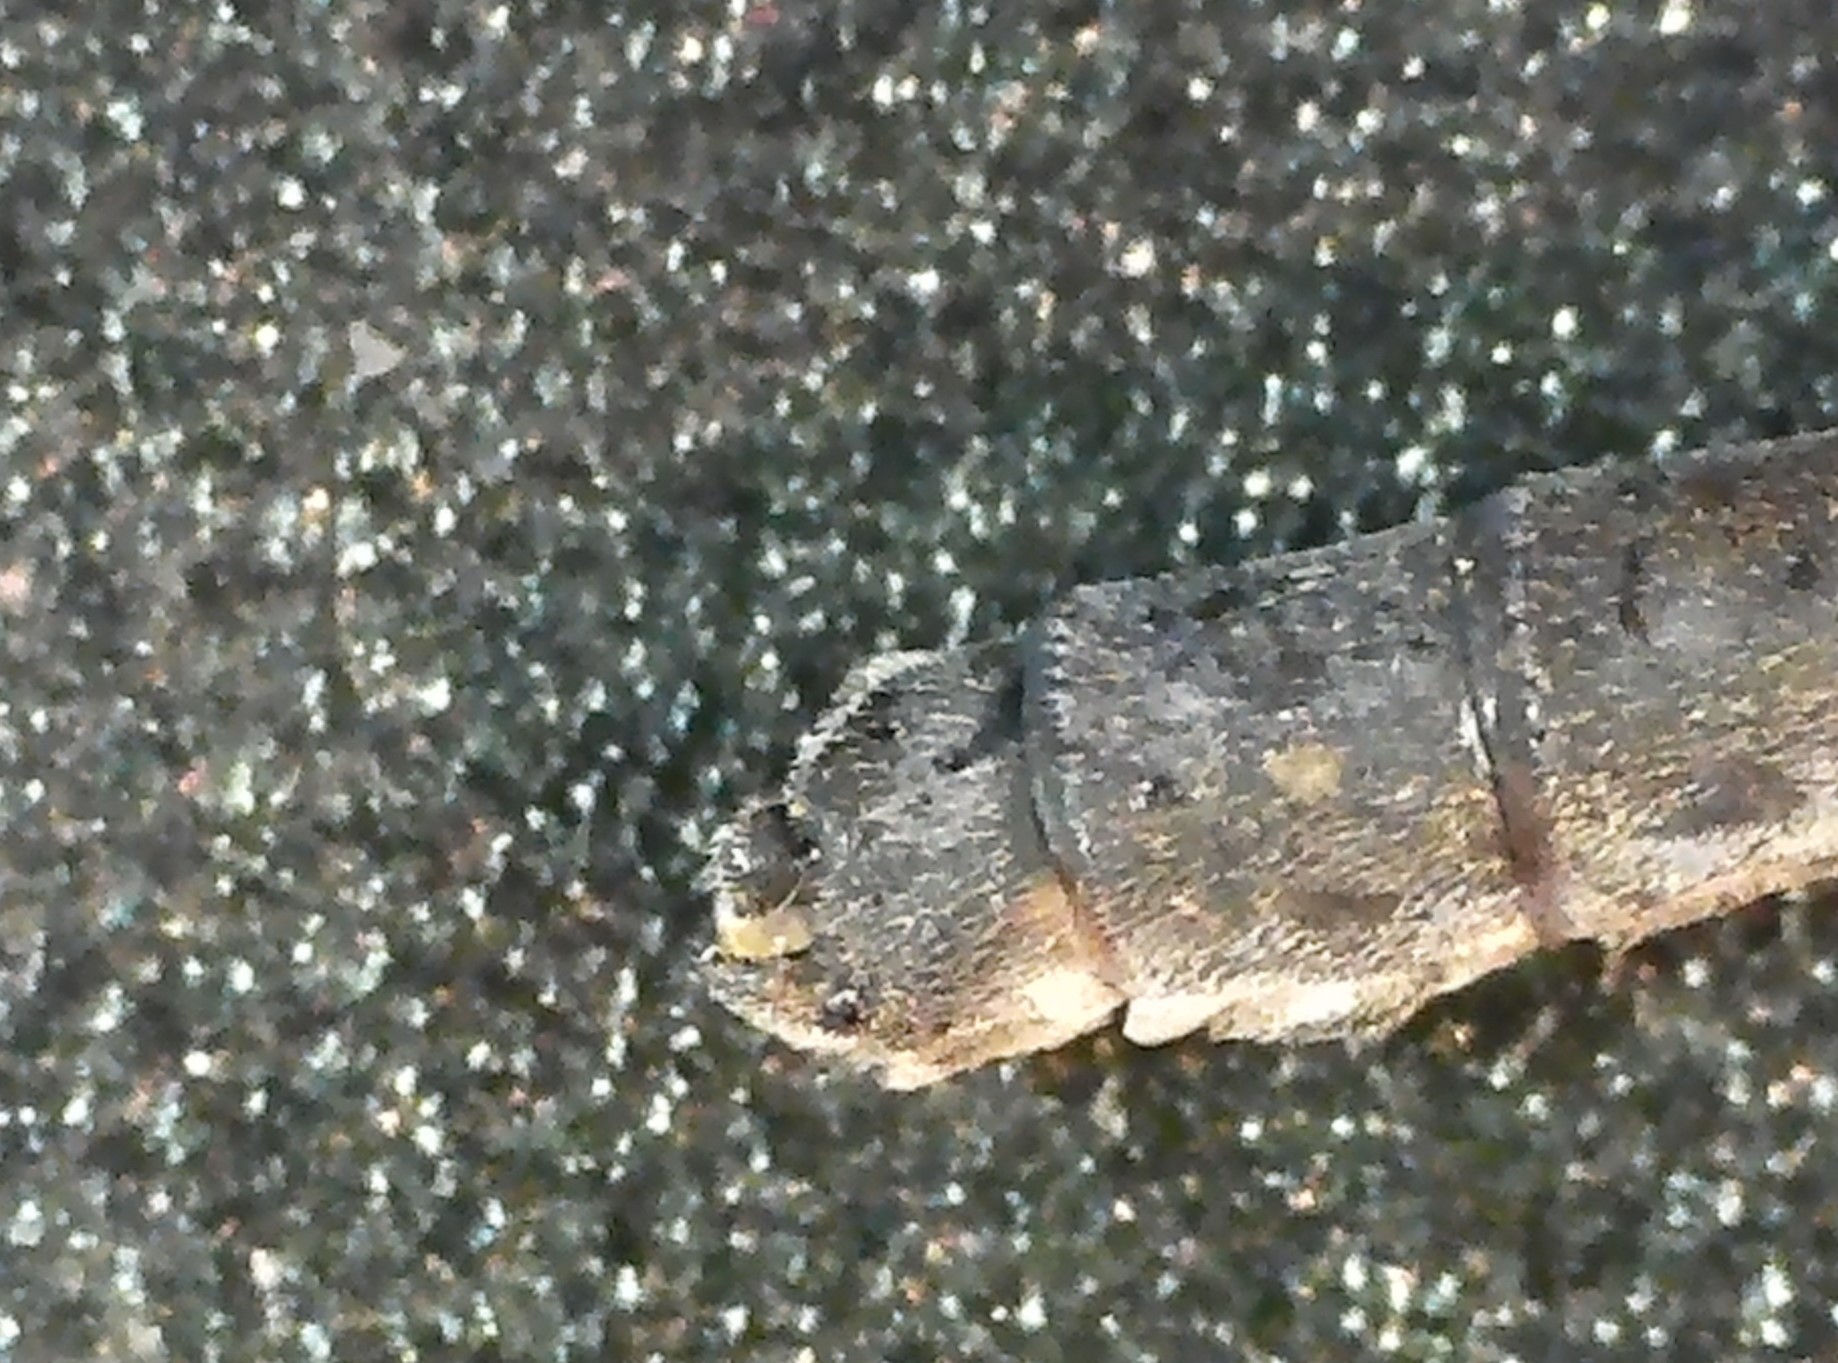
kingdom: Animalia
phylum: Arthropoda
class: Insecta
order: Odonata
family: Coenagrionidae
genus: Enallagma
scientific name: Enallagma boreale
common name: Boreal bluet
